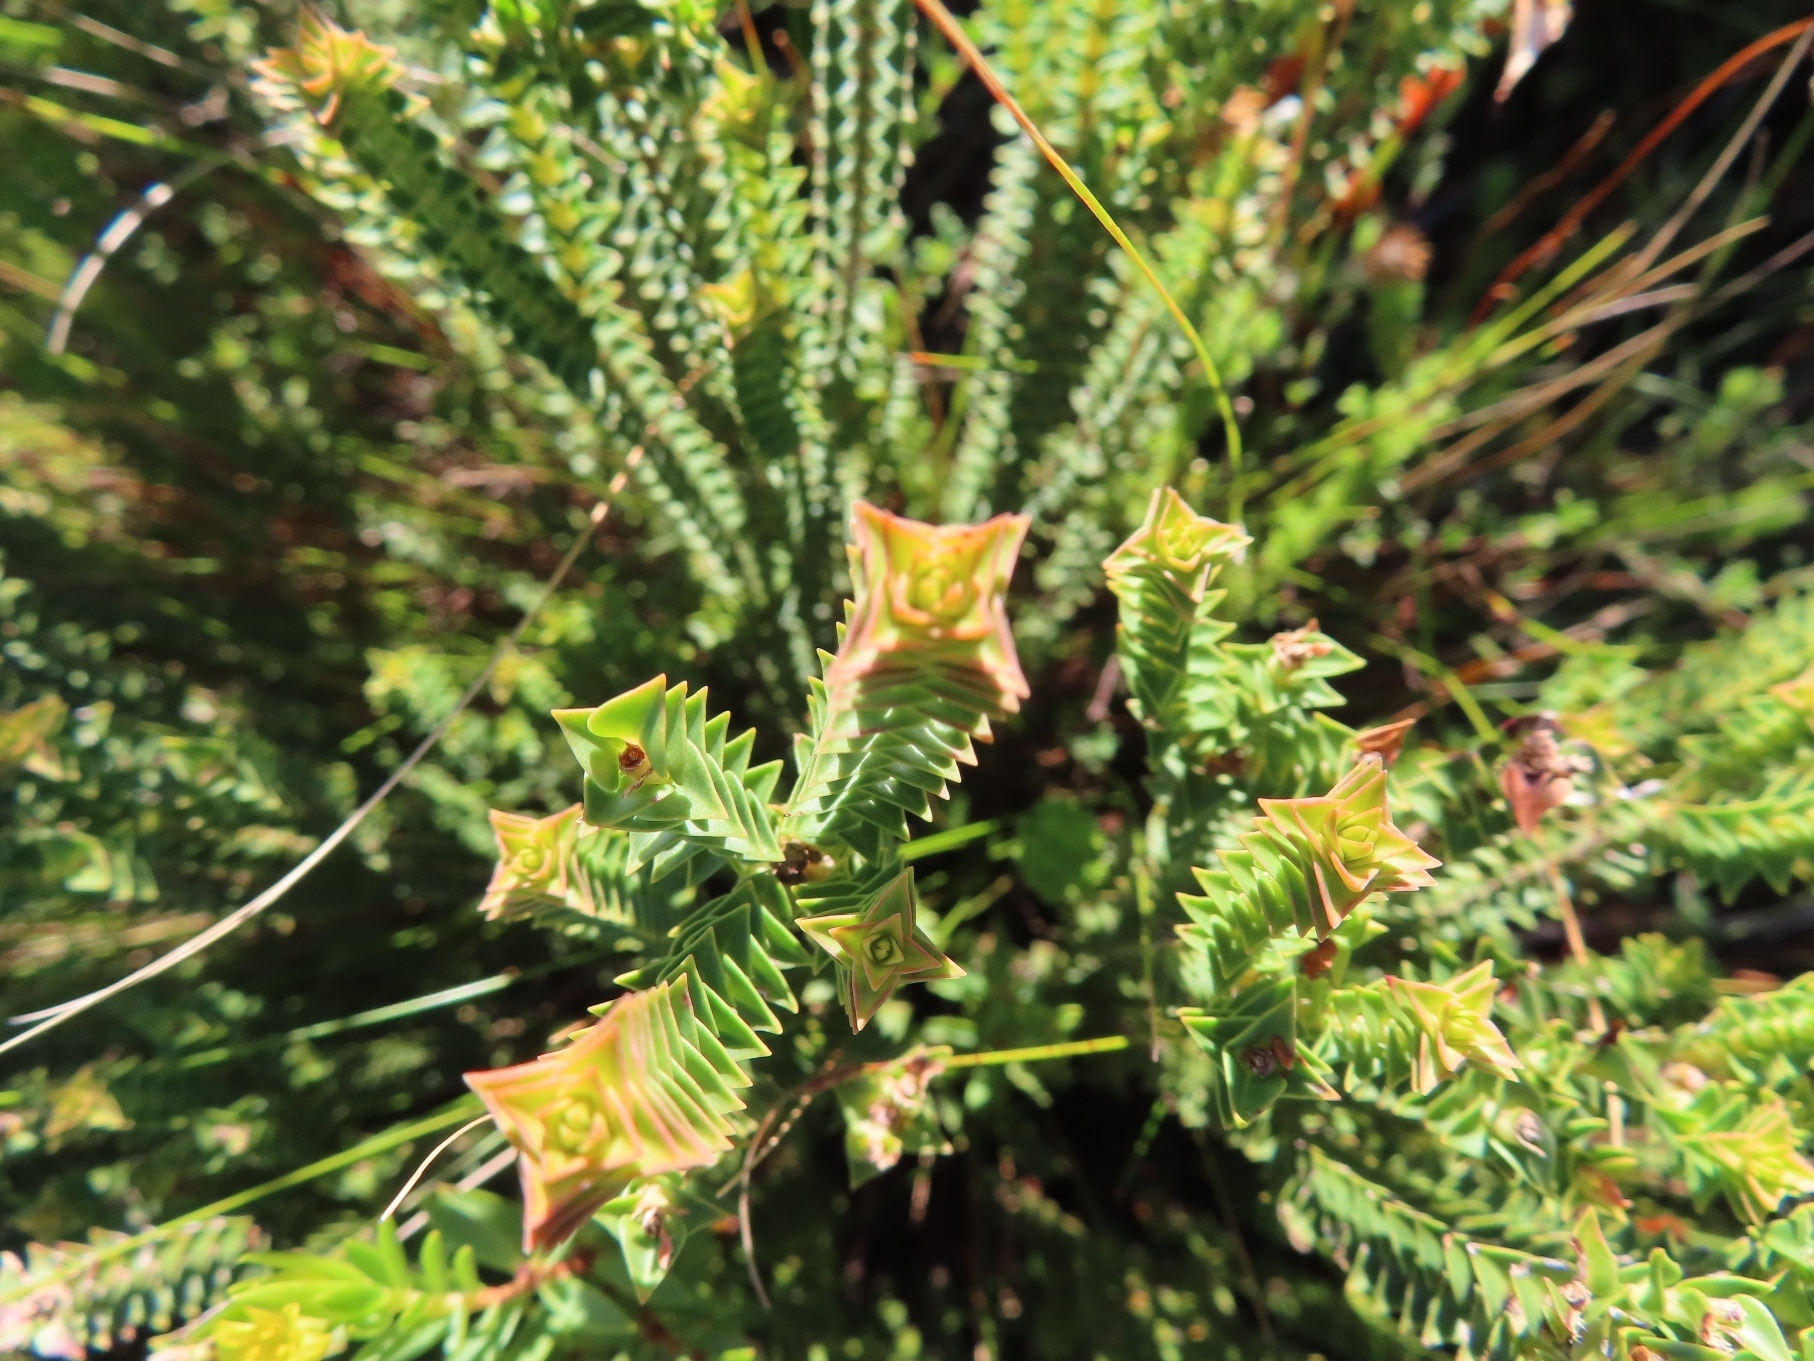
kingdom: Plantae
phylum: Tracheophyta
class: Magnoliopsida
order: Myrtales
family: Penaeaceae
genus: Penaea
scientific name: Penaea mucronata
